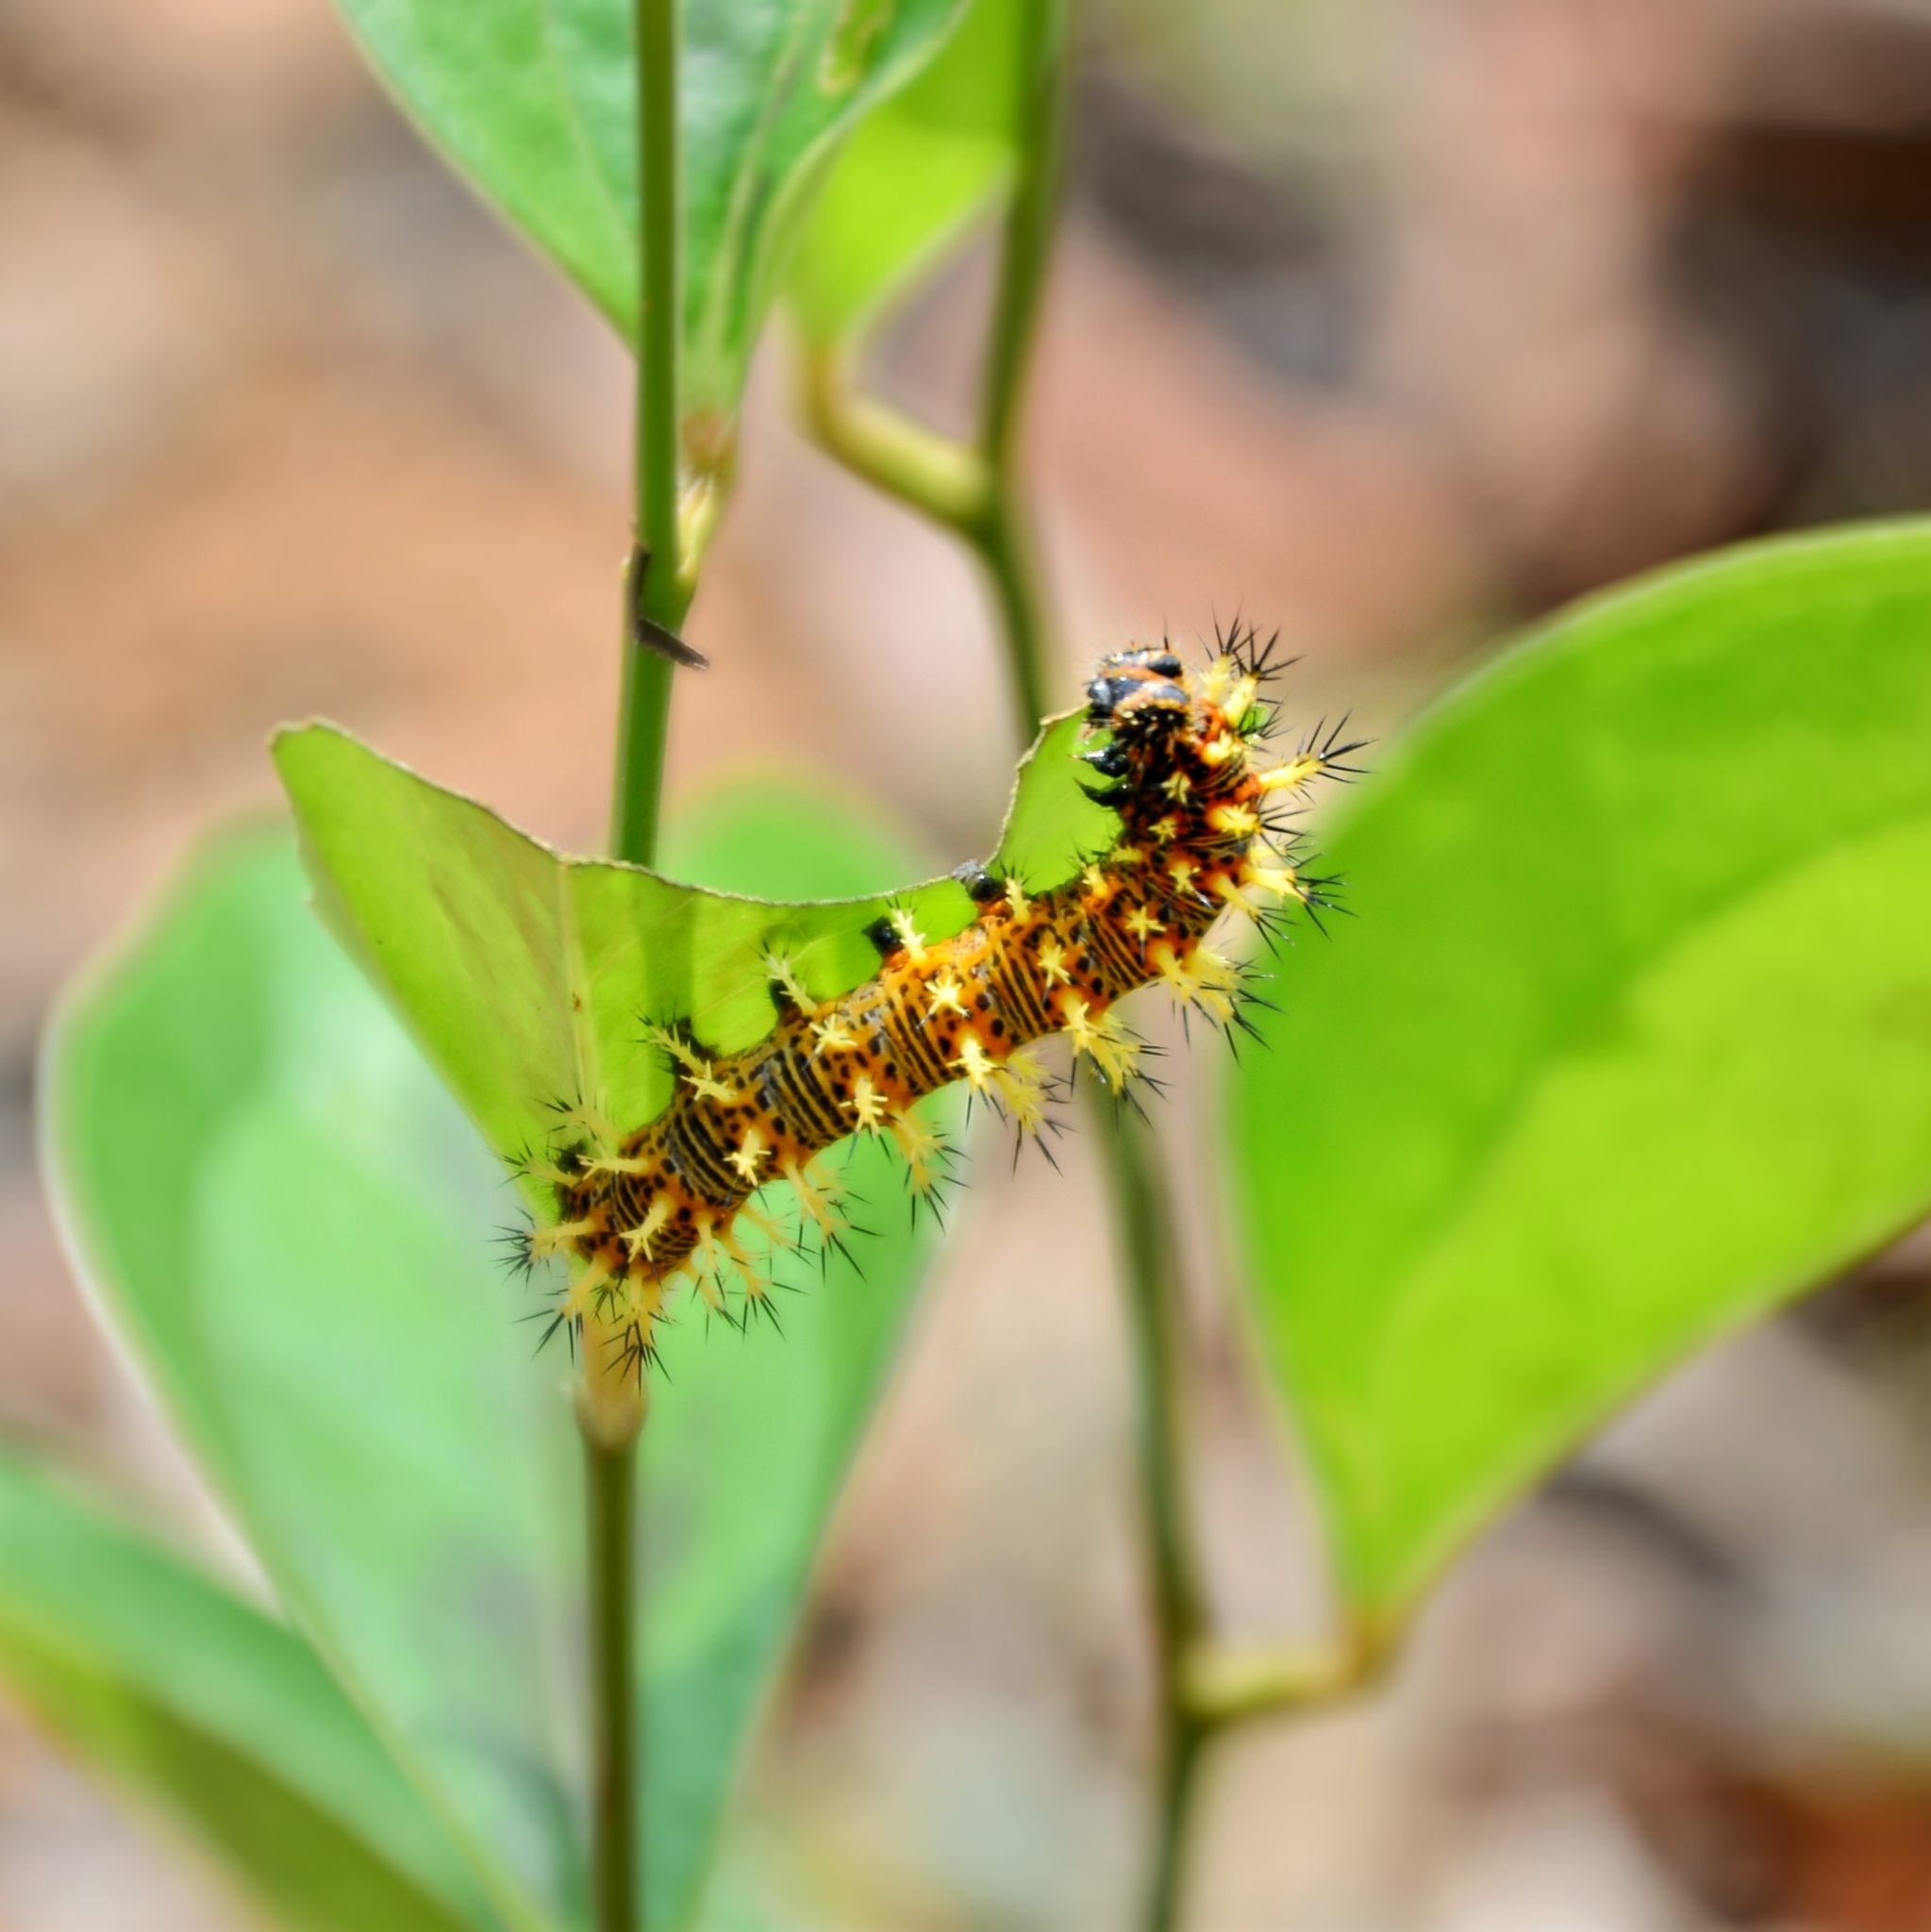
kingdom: Animalia
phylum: Arthropoda
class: Insecta
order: Lepidoptera
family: Nymphalidae
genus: Vanessa
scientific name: Vanessa Kaniska canace
